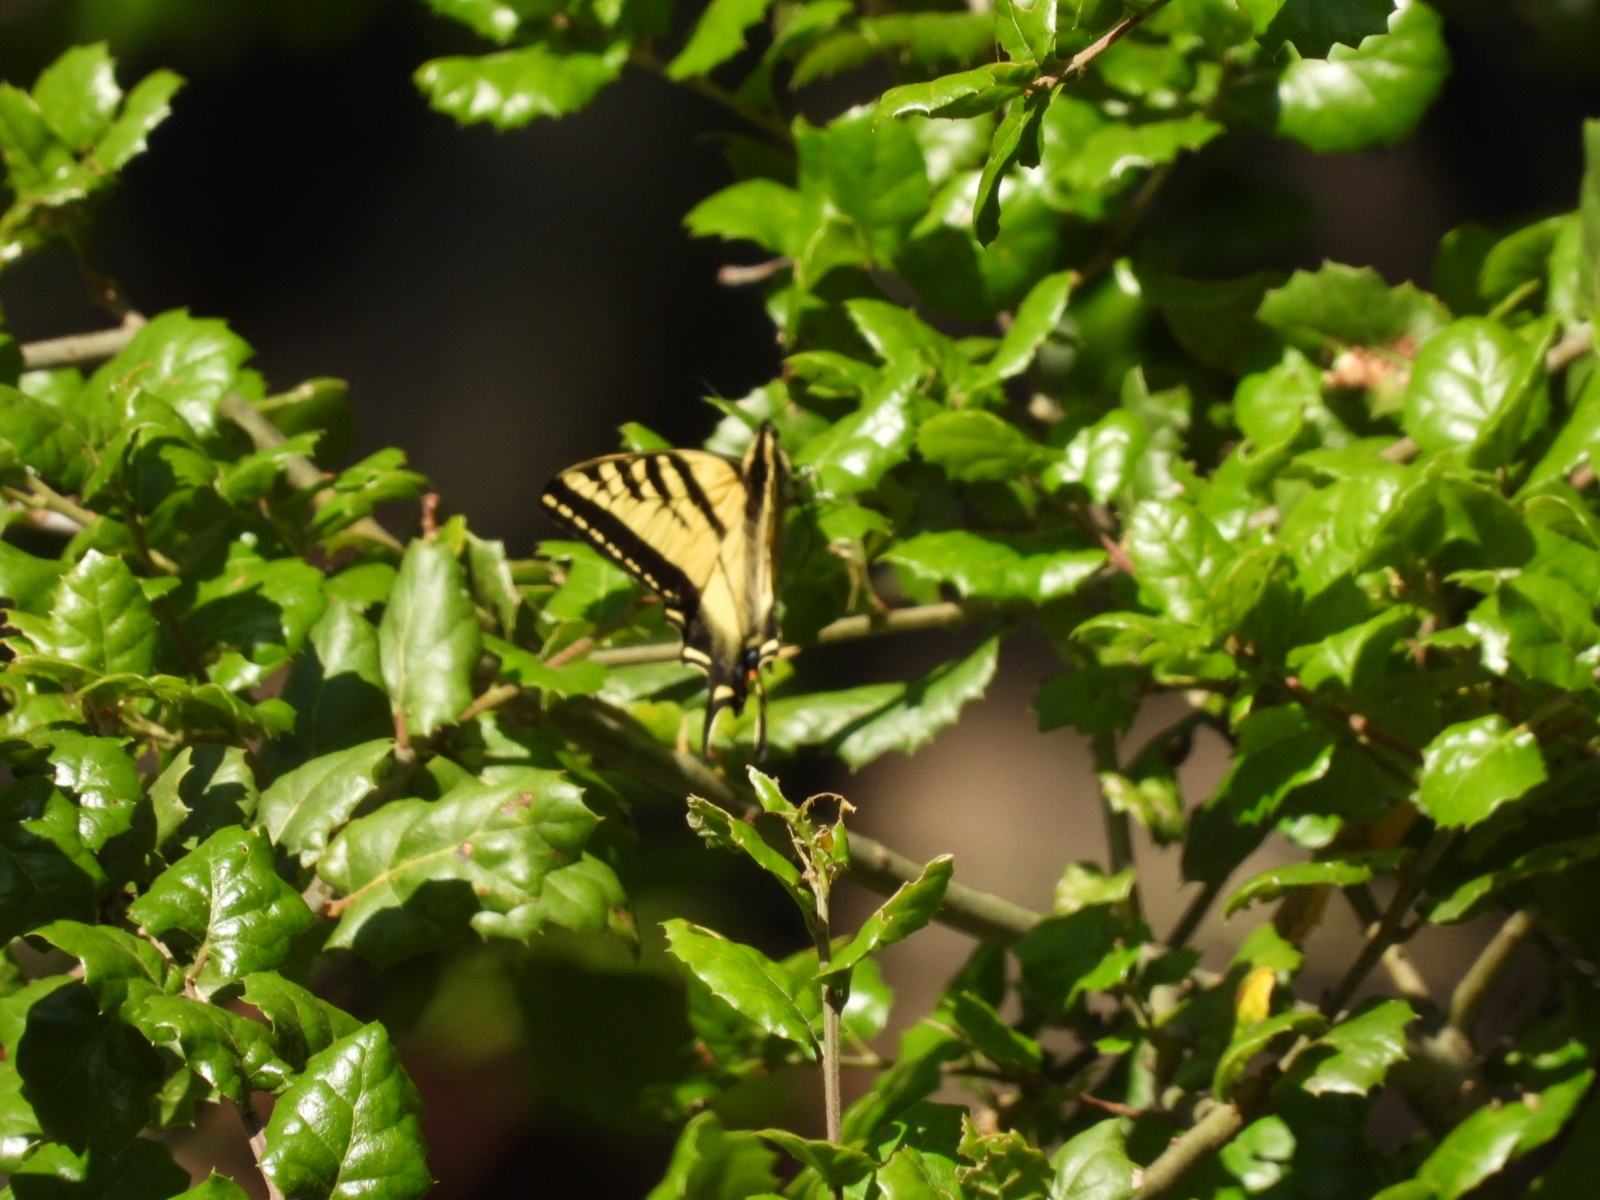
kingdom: Animalia
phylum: Arthropoda
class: Insecta
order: Lepidoptera
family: Papilionidae
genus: Papilio
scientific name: Papilio rutulus
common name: Western tiger swallowtail
